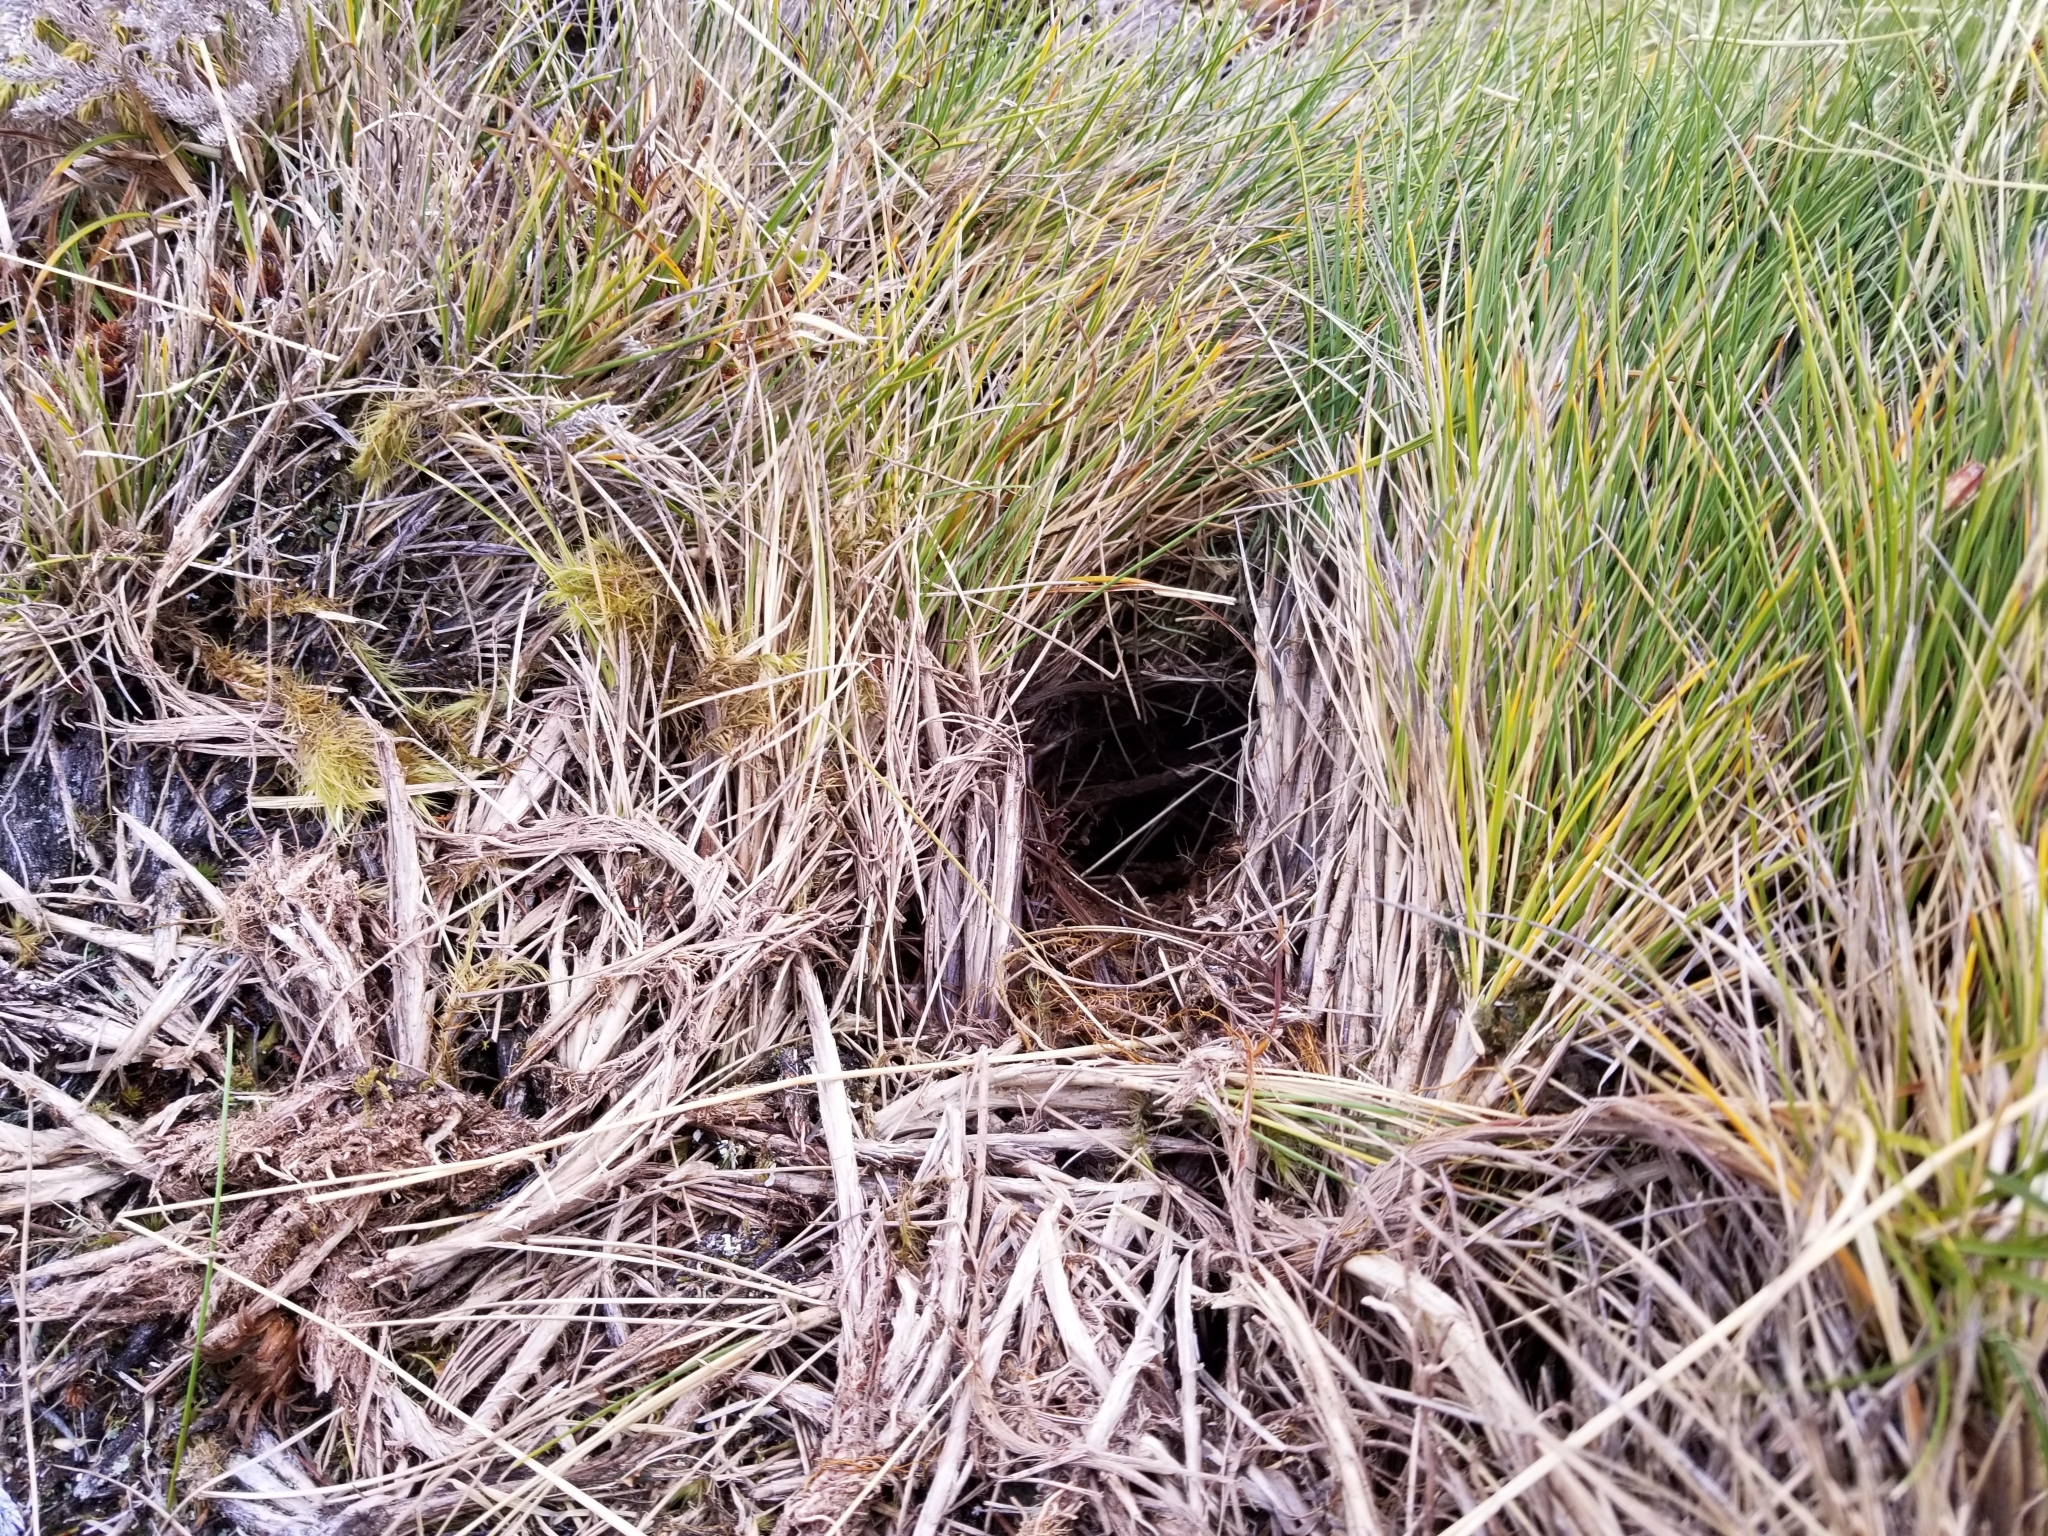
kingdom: Animalia
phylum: Chordata
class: Aves
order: Apterygiformes
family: Apterygidae
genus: Apteryx
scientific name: Apteryx haastii
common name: Great spotted kiwi
